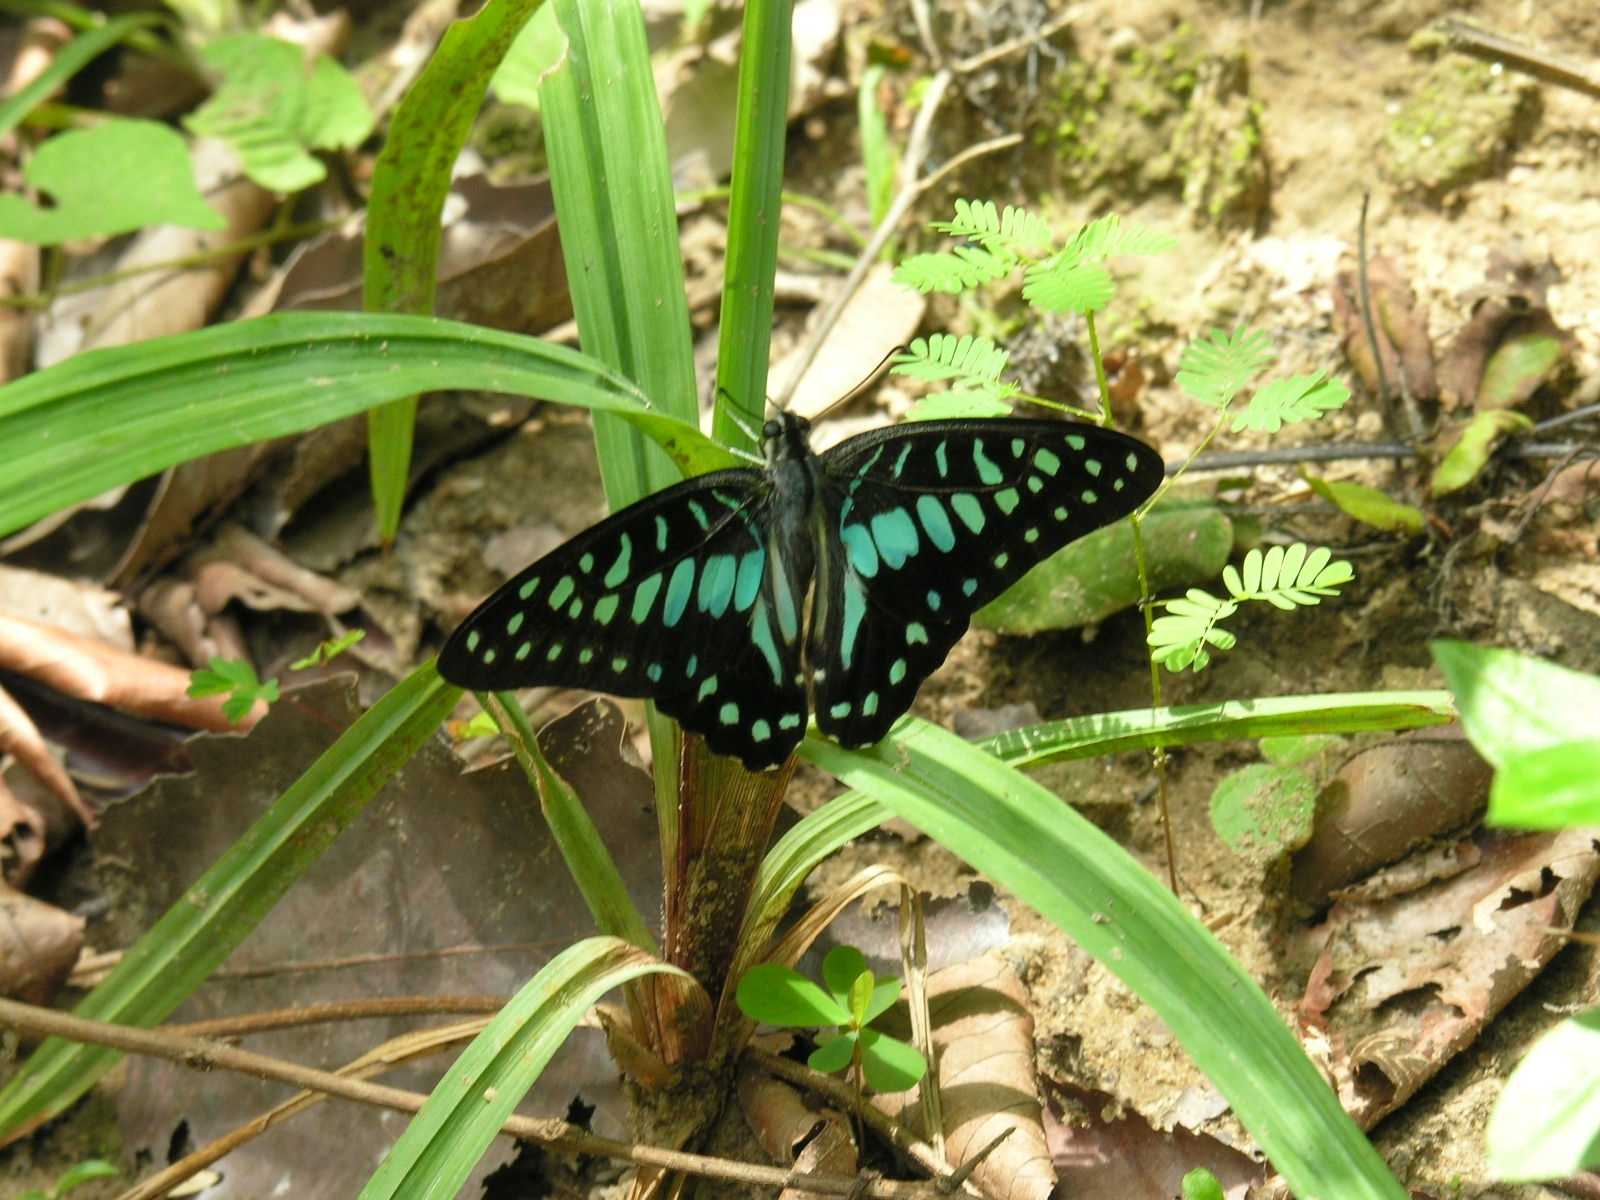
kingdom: Animalia
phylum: Arthropoda
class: Insecta
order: Lepidoptera
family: Papilionidae
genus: Graphium
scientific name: Graphium doson
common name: Common jay
